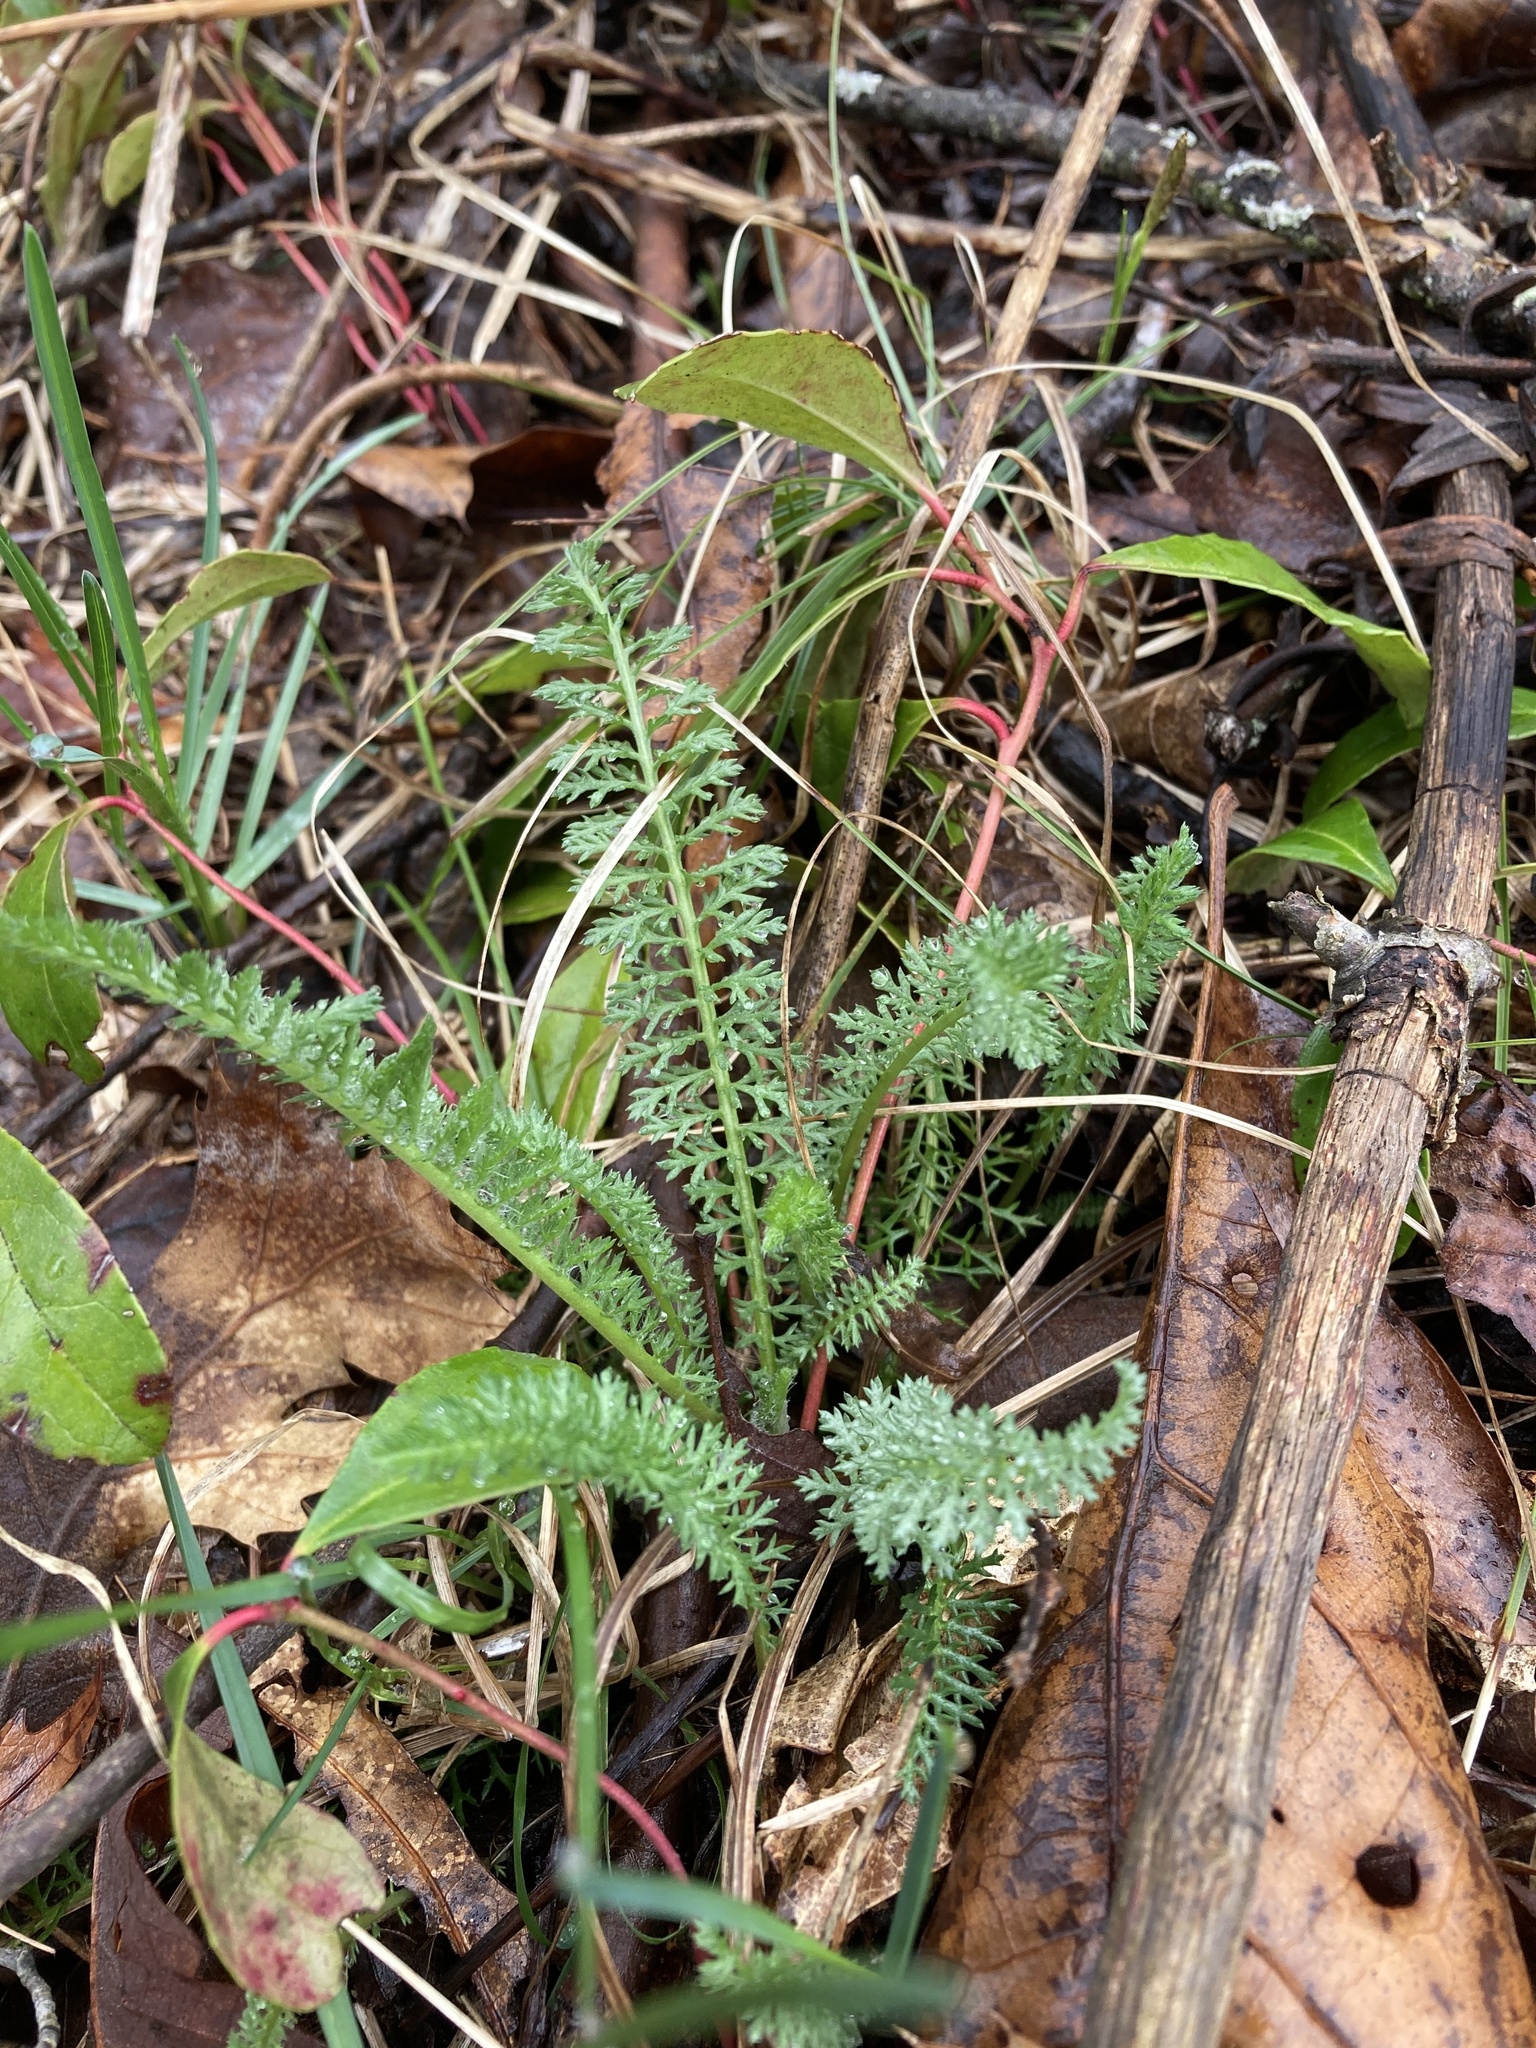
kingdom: Plantae
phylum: Tracheophyta
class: Magnoliopsida
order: Asterales
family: Asteraceae
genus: Achillea
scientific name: Achillea millefolium
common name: Yarrow
